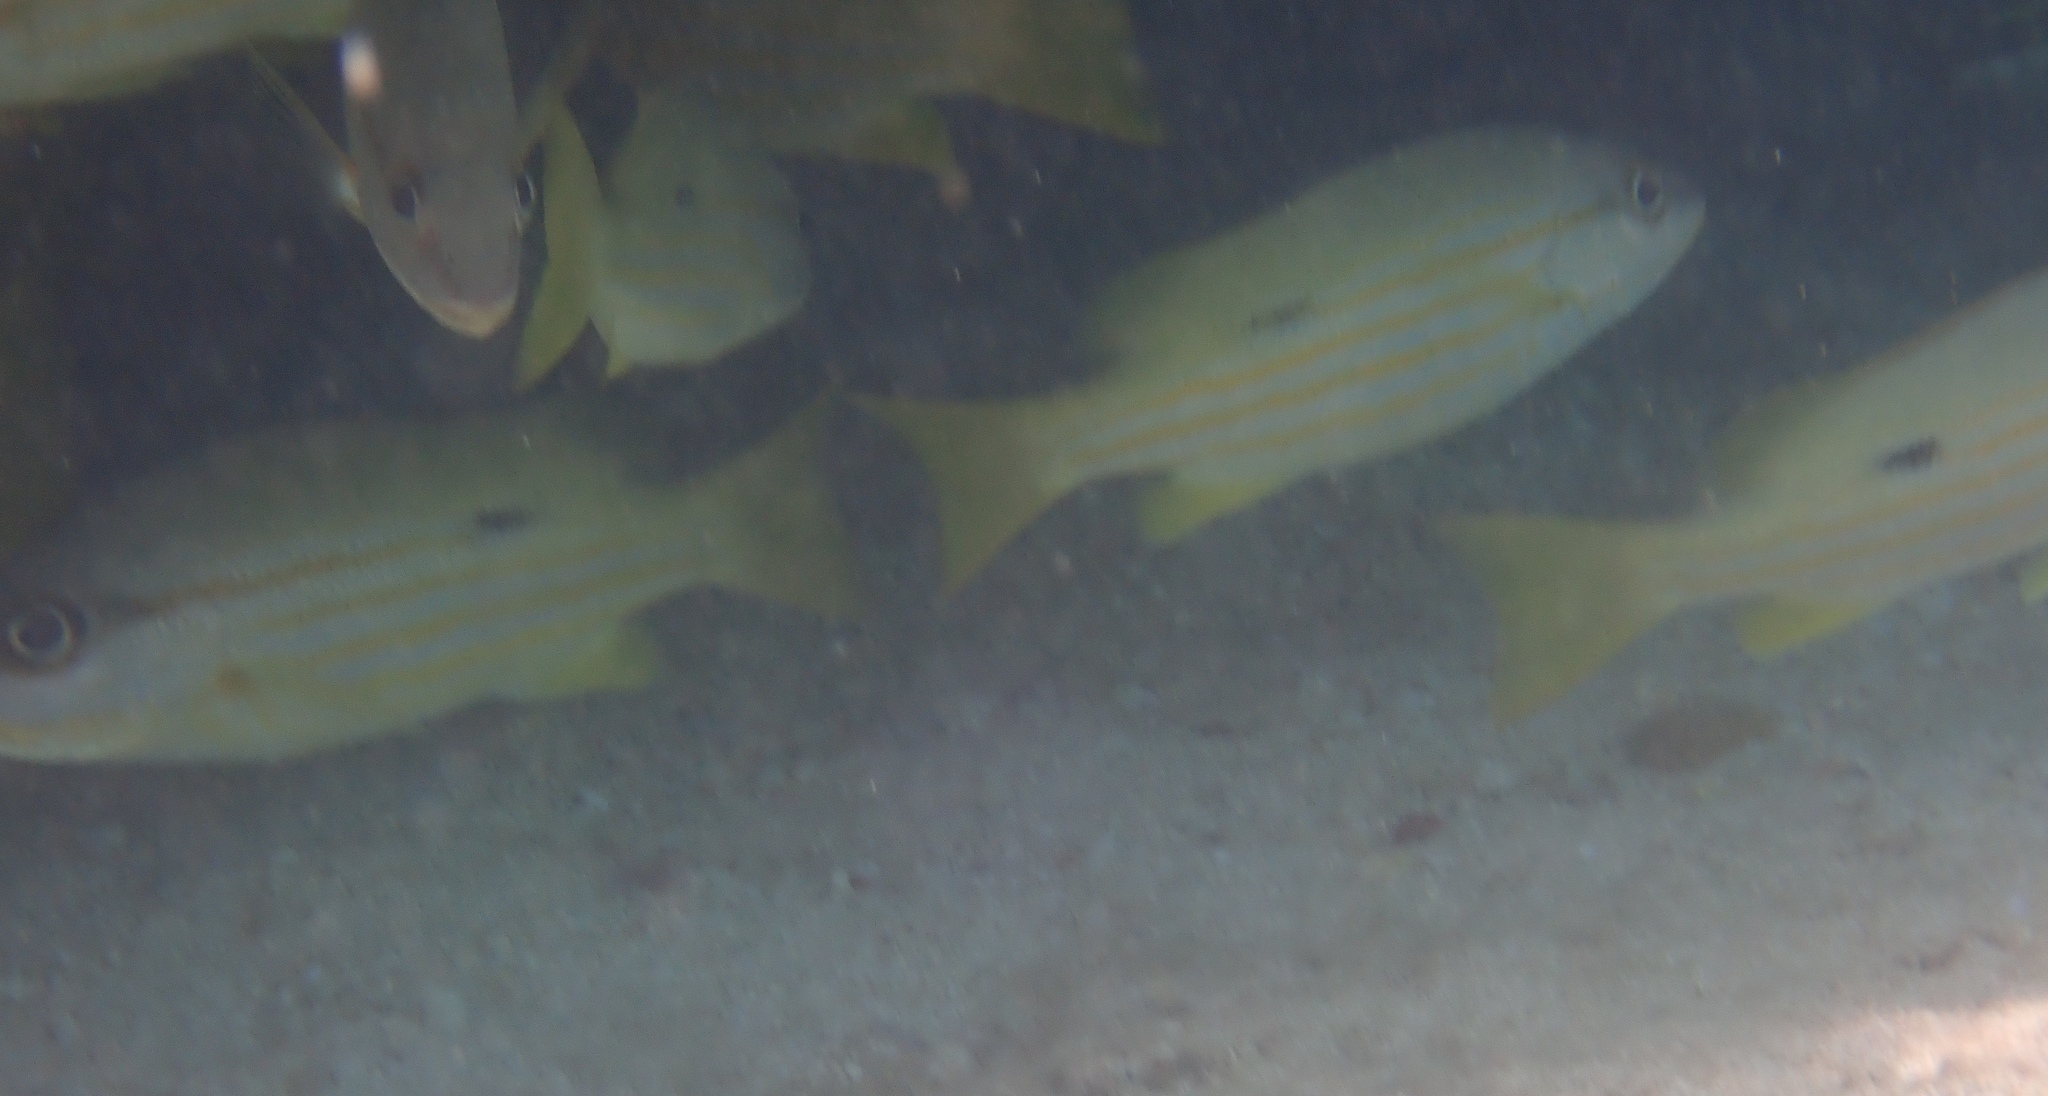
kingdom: Animalia
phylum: Chordata
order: Perciformes
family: Lutjanidae
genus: Lutjanus
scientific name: Lutjanus fulviflamma
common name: Blackspot snapper
